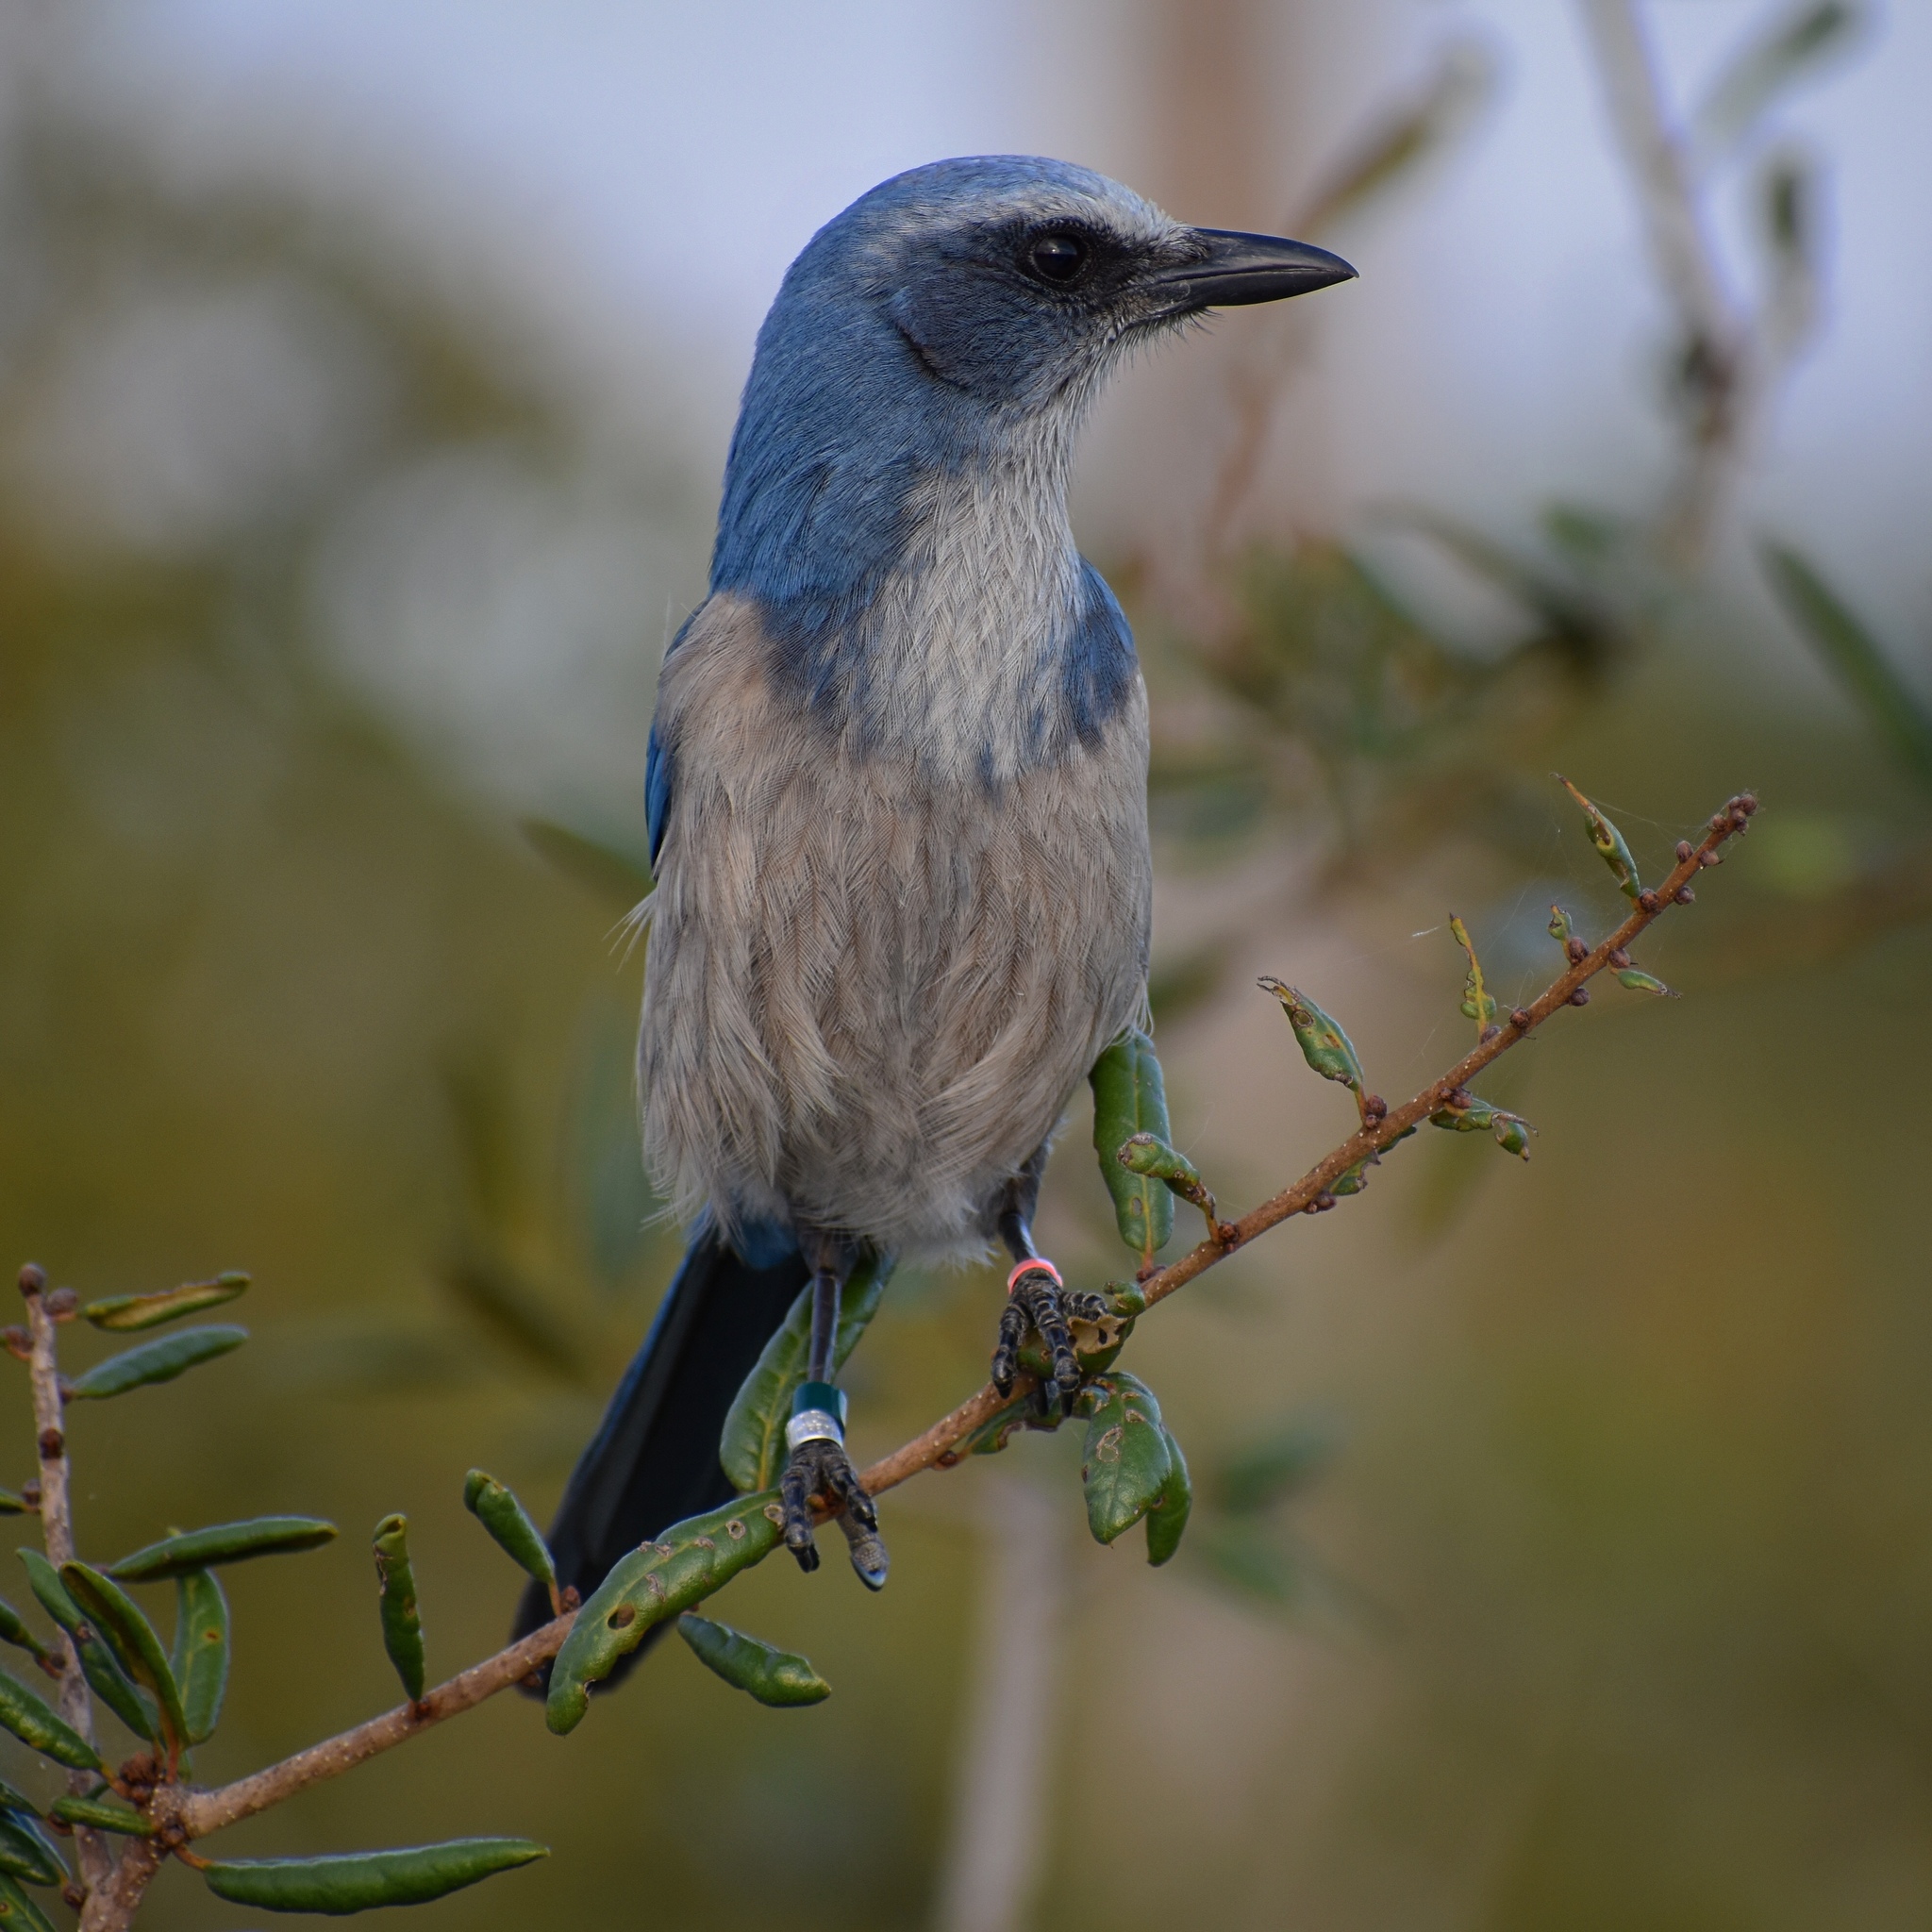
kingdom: Animalia
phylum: Chordata
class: Aves
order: Passeriformes
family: Corvidae
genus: Aphelocoma
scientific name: Aphelocoma coerulescens
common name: Florida scrub jay
